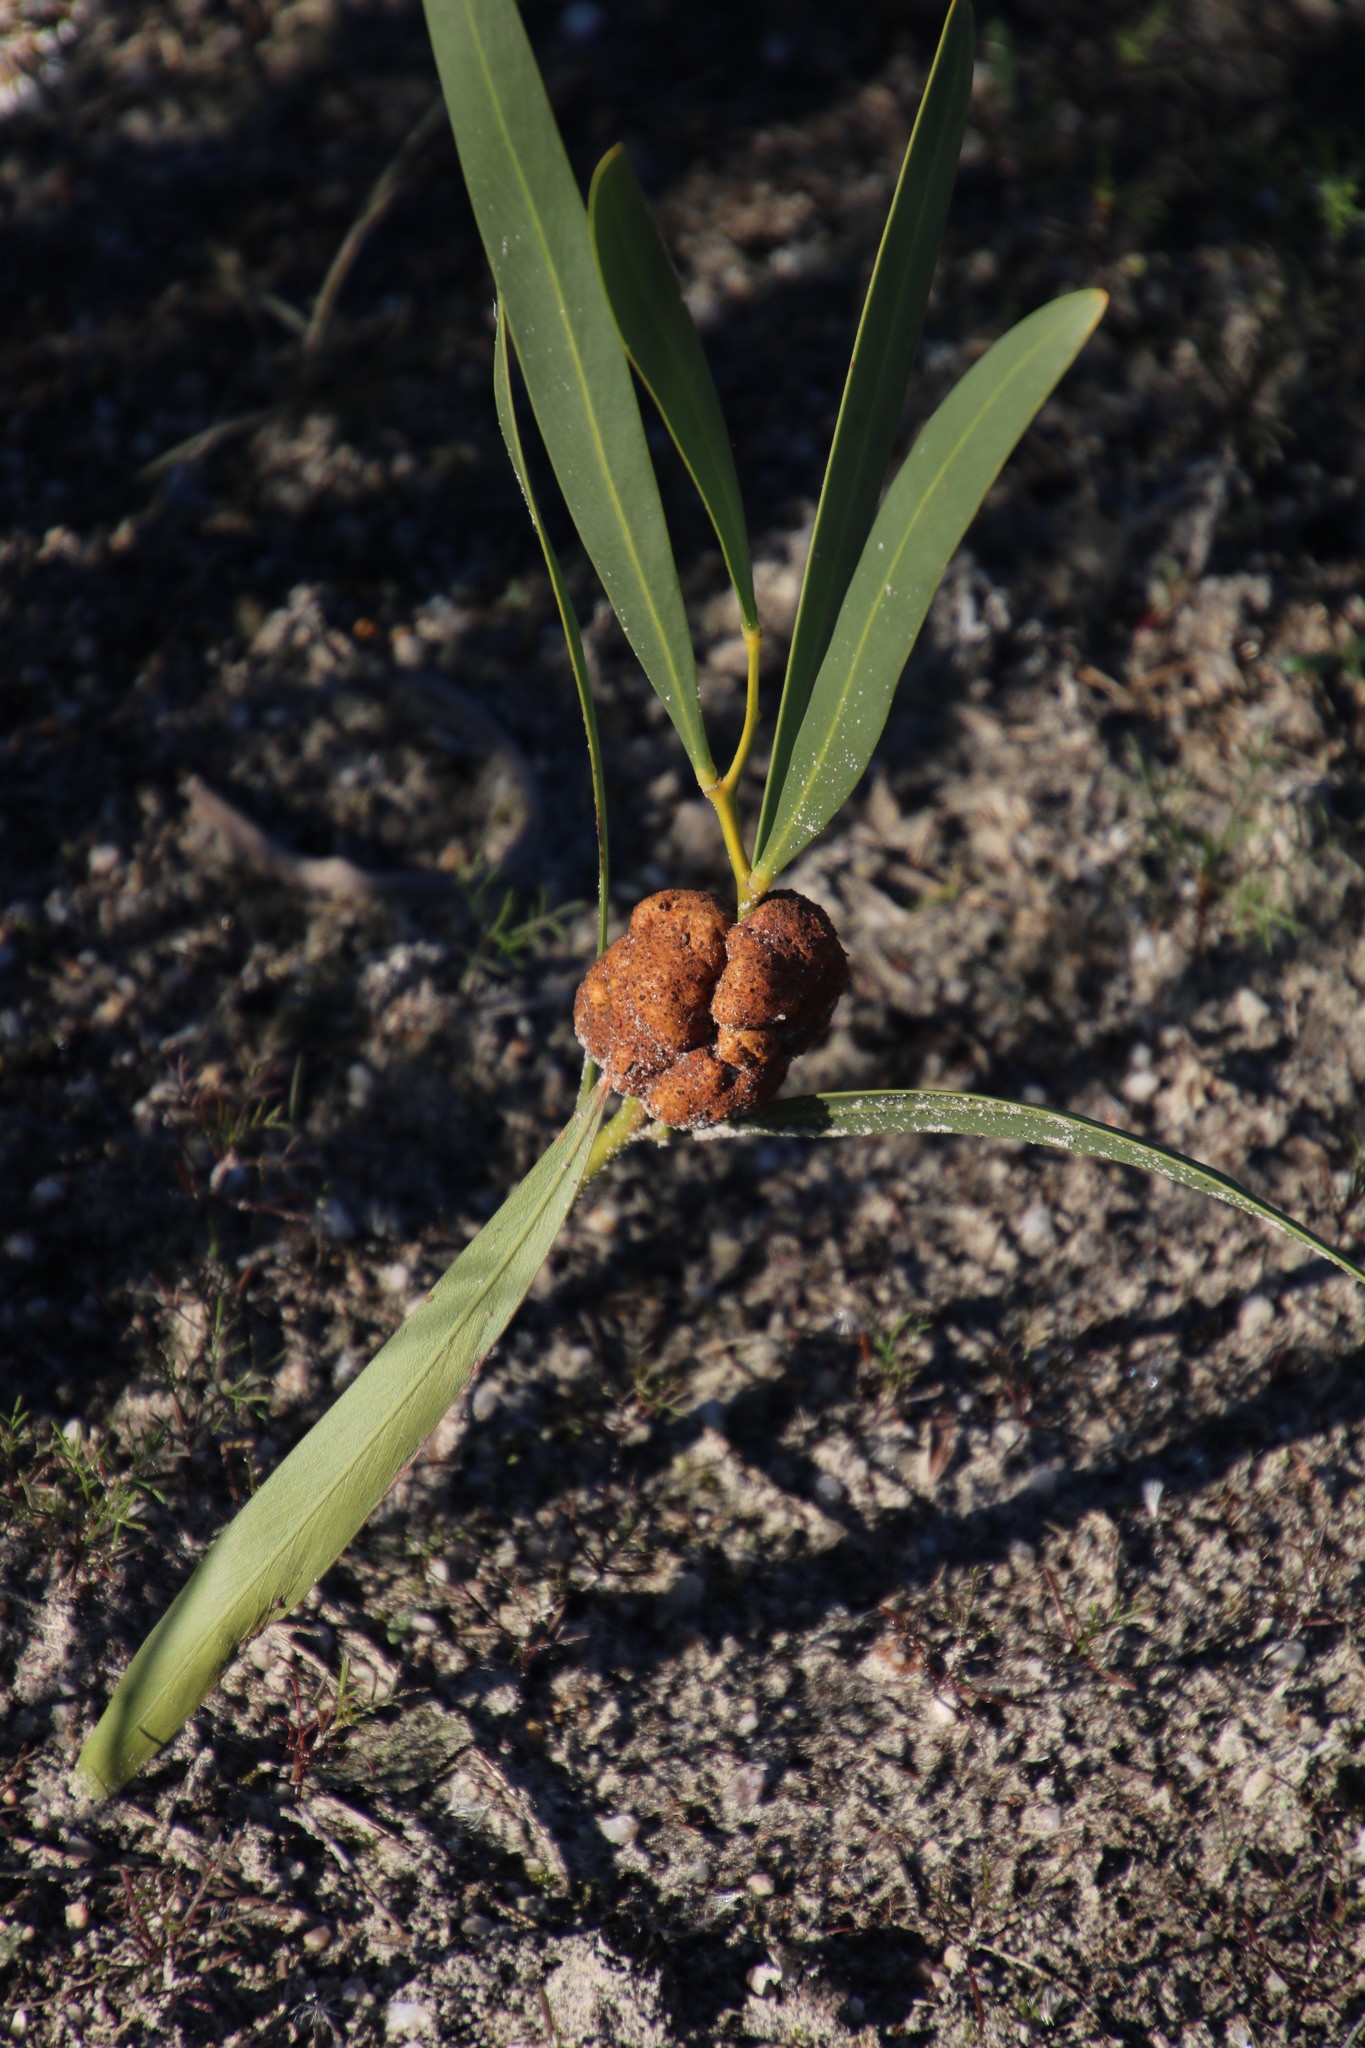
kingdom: Plantae
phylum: Tracheophyta
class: Magnoliopsida
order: Fabales
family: Fabaceae
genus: Acacia
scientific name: Acacia saligna
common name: Orange wattle
